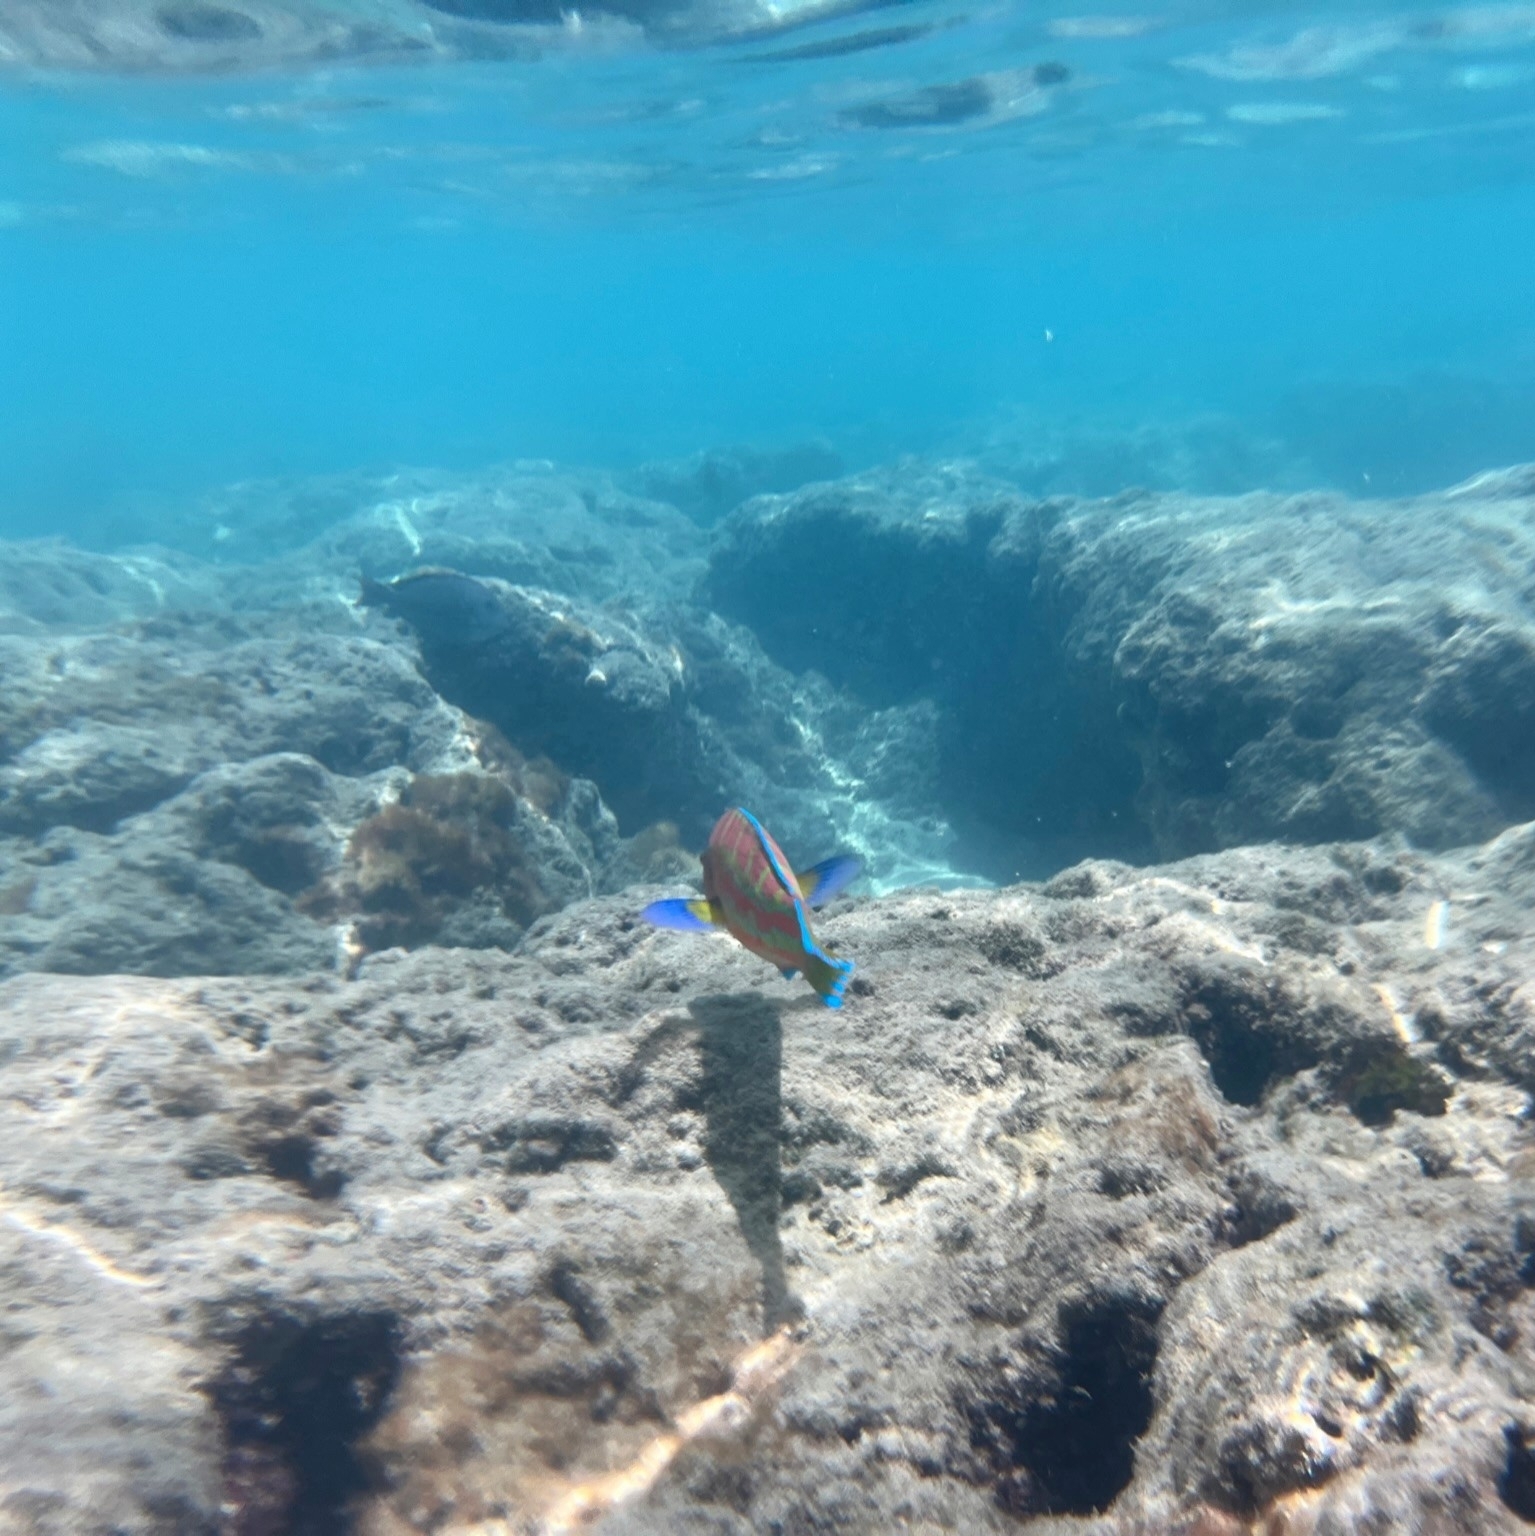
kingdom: Animalia
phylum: Chordata
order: Perciformes
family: Labridae
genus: Thalassoma
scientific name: Thalassoma trilobatum
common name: Christmas wrasse
